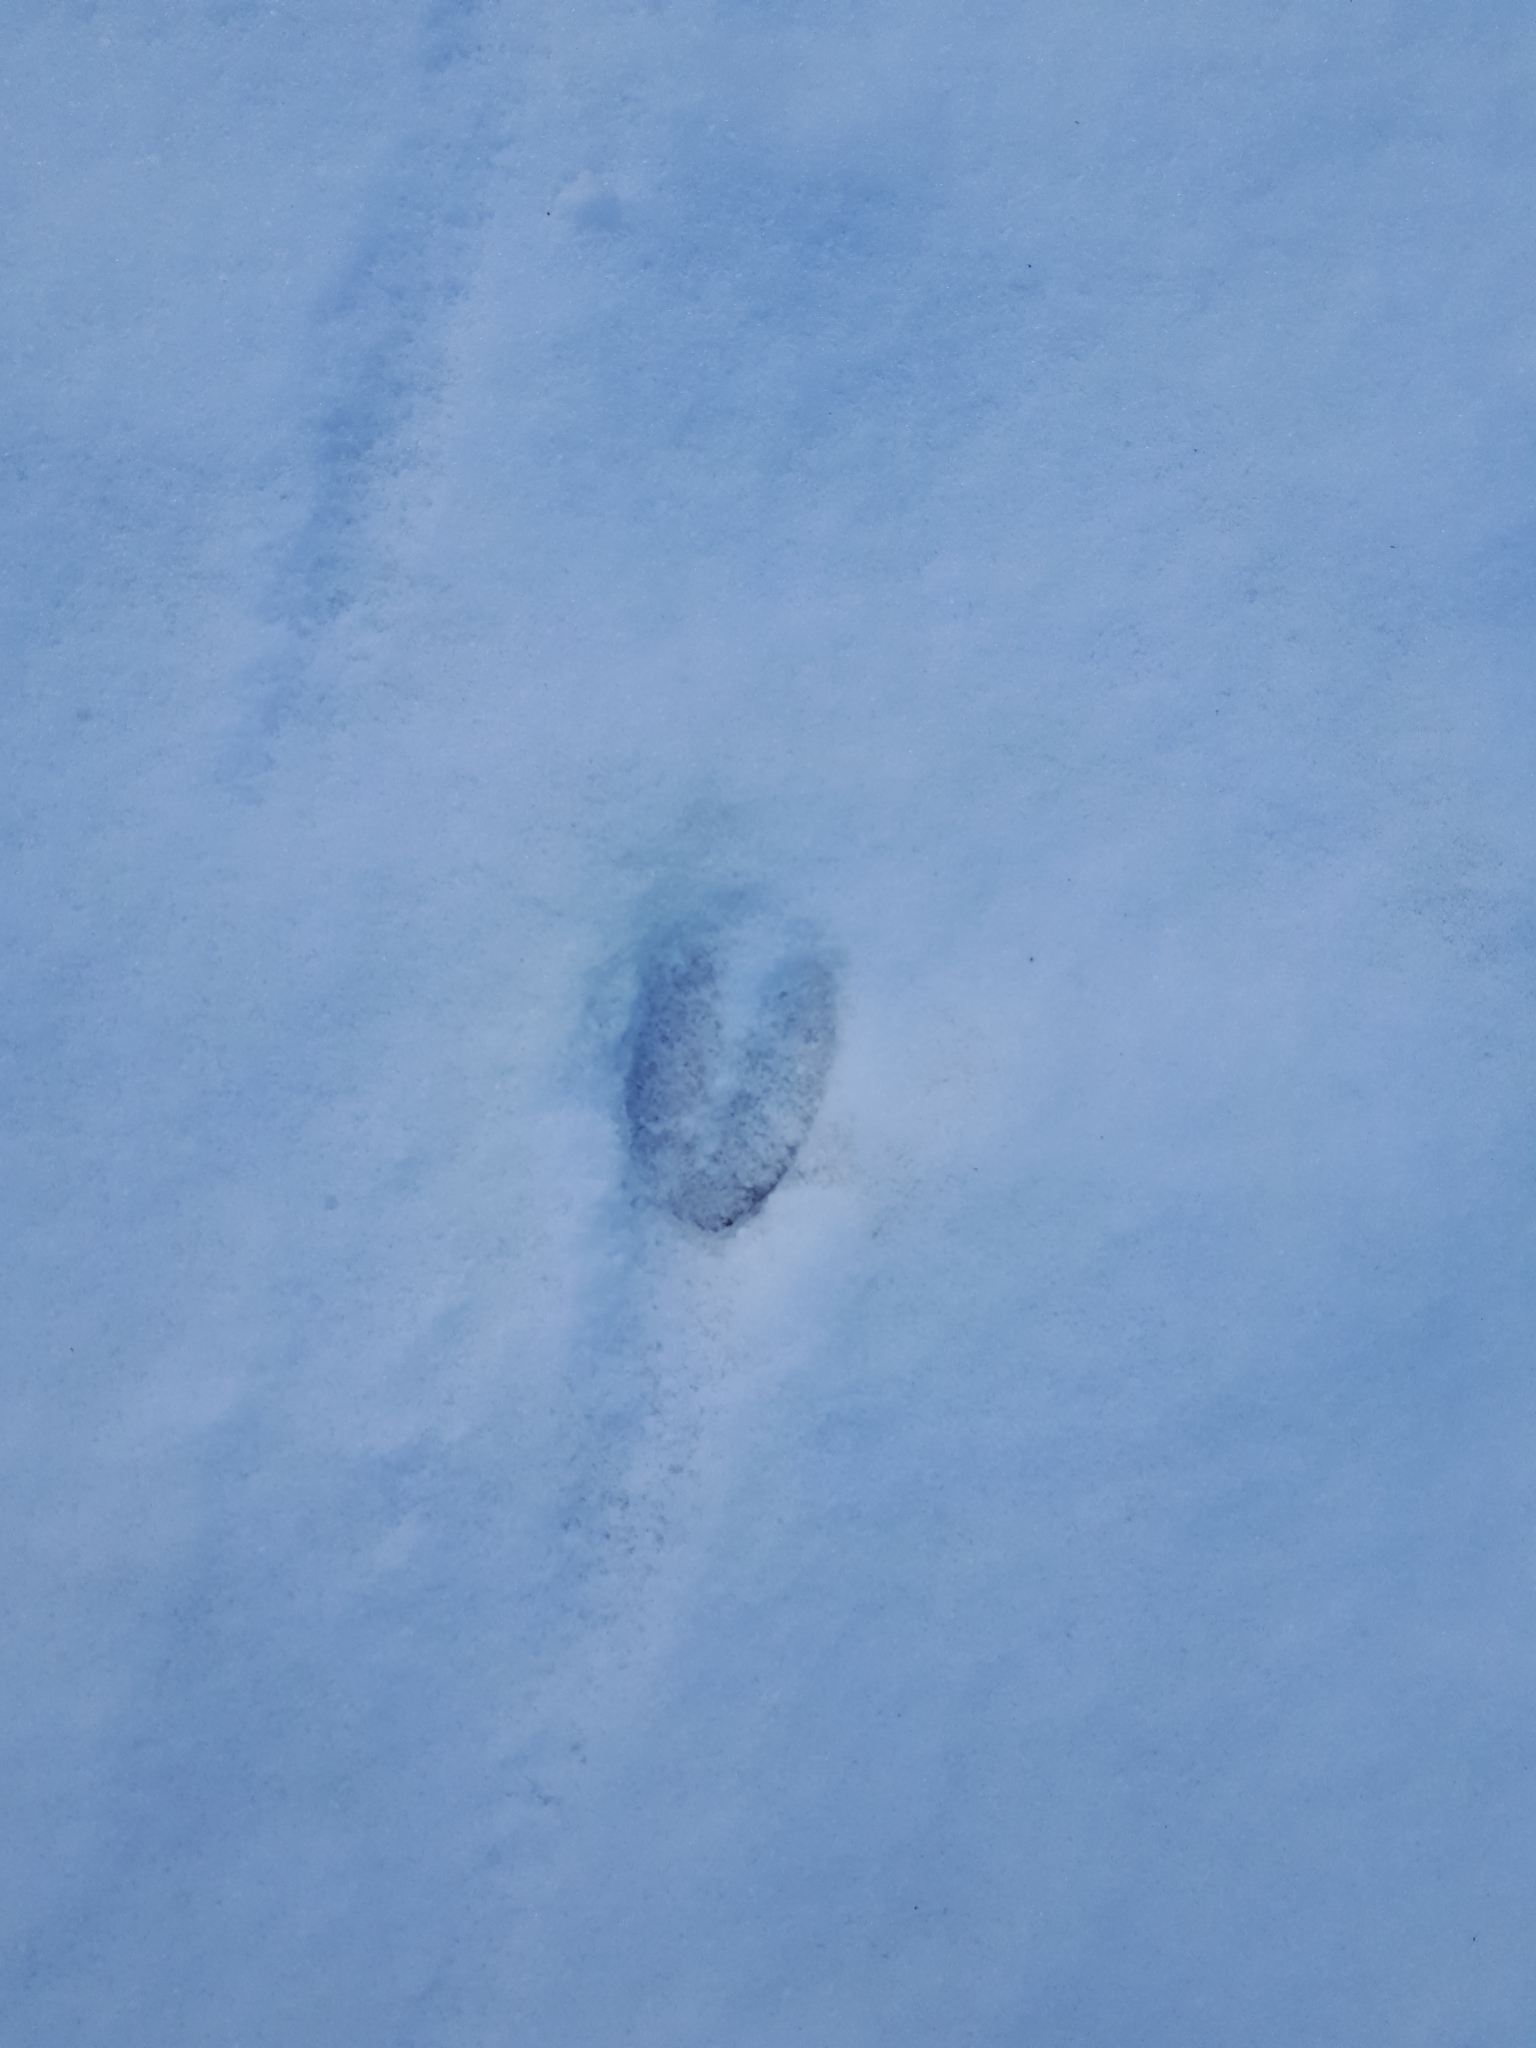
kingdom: Animalia
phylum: Chordata
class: Mammalia
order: Artiodactyla
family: Cervidae
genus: Odocoileus
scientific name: Odocoileus virginianus
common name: White-tailed deer
